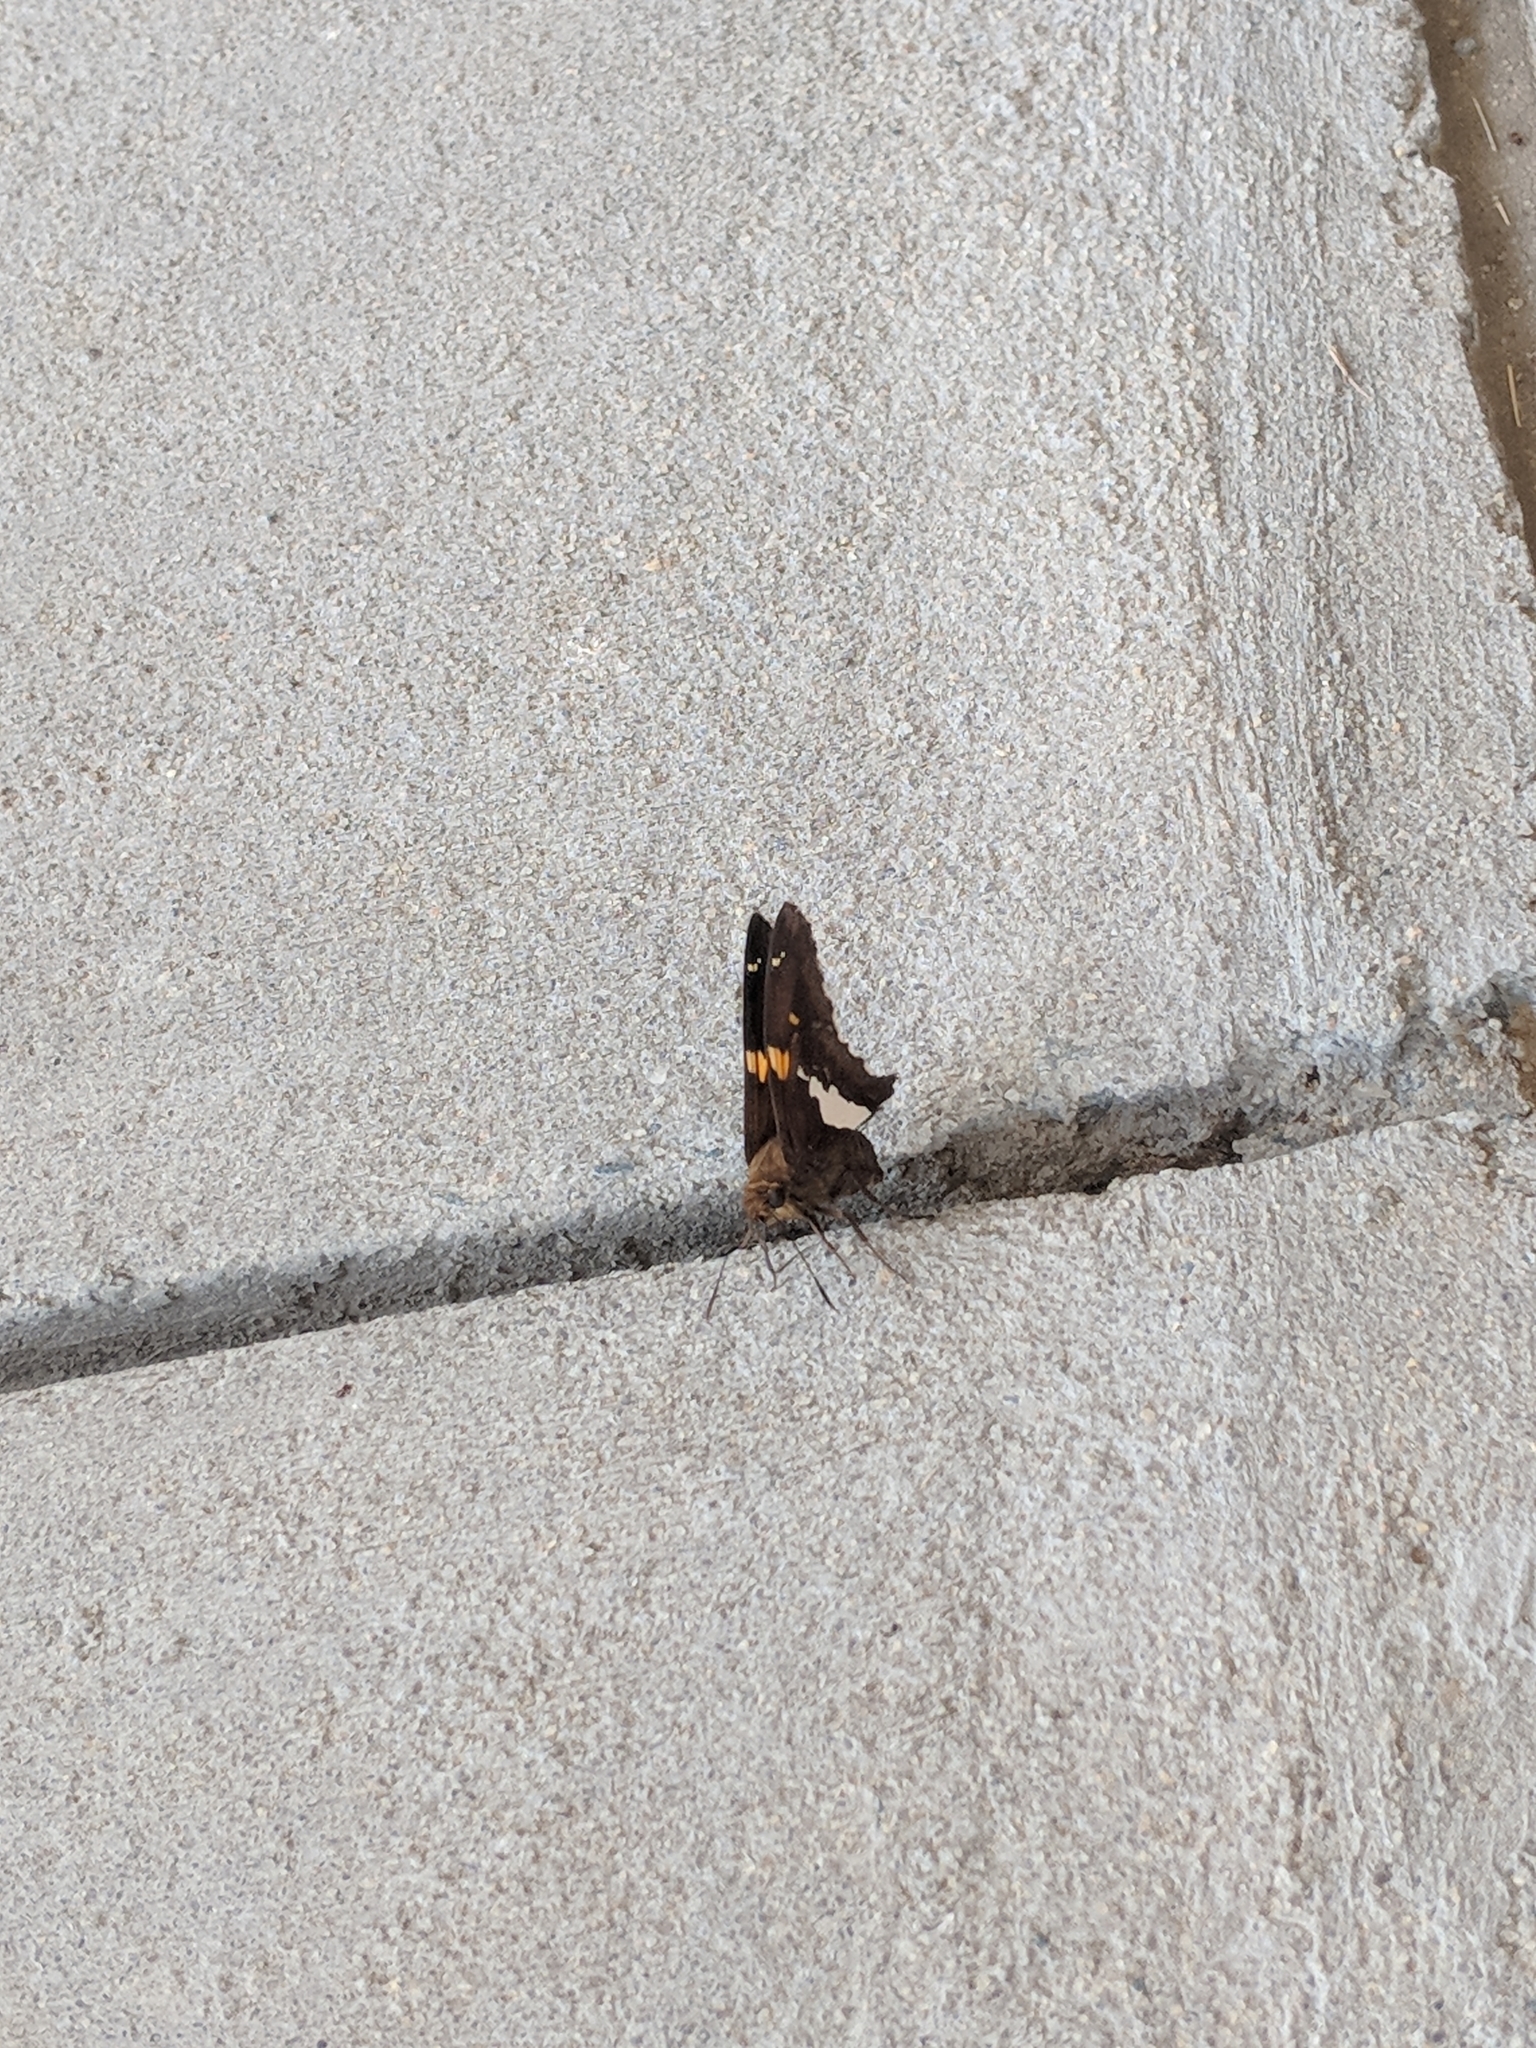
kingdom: Animalia
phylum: Arthropoda
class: Insecta
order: Lepidoptera
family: Hesperiidae
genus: Epargyreus
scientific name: Epargyreus clarus
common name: Silver-spotted skipper
